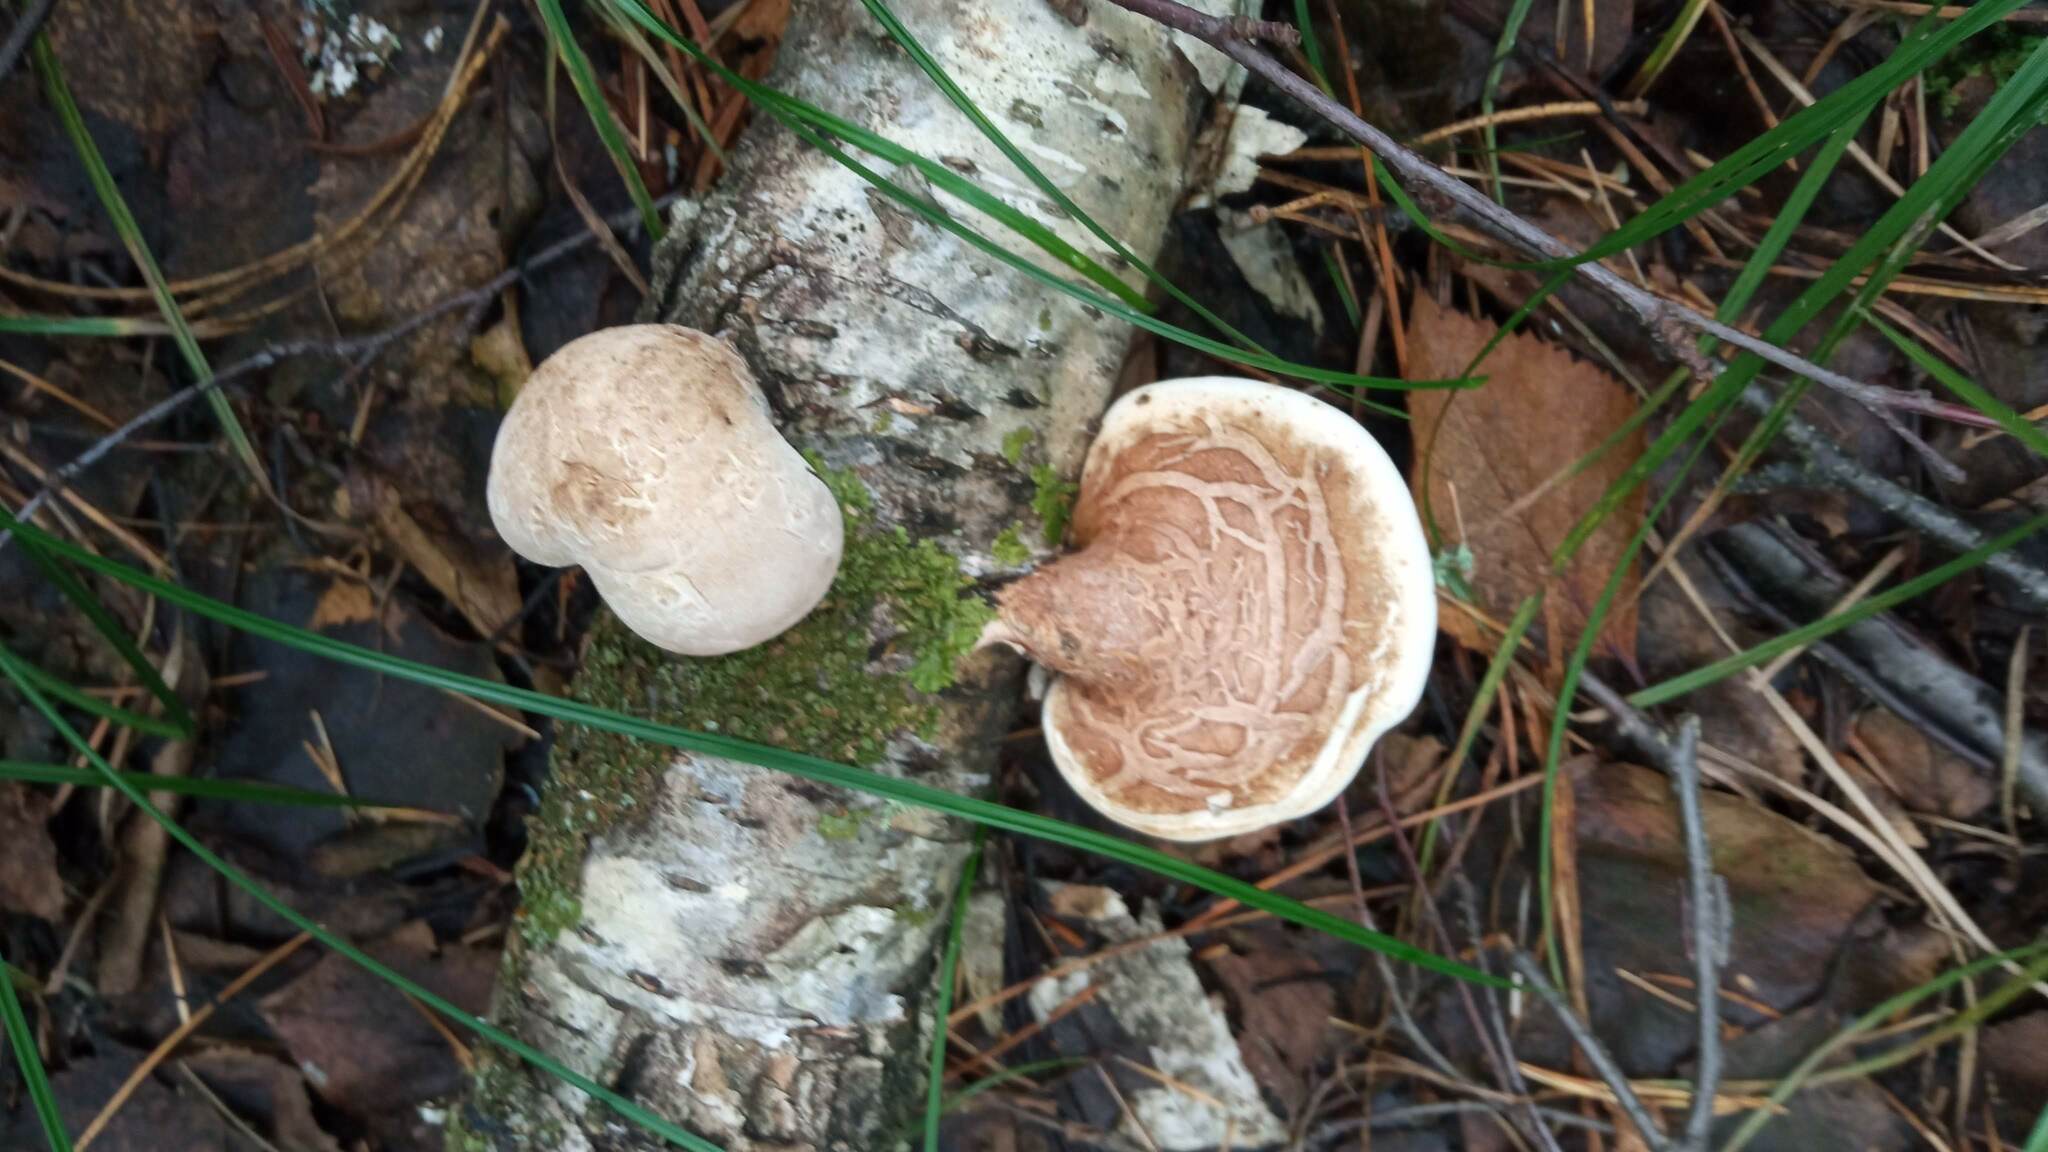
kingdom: Fungi
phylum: Basidiomycota
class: Agaricomycetes
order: Polyporales
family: Fomitopsidaceae
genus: Fomitopsis
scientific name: Fomitopsis betulina
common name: Birch polypore
